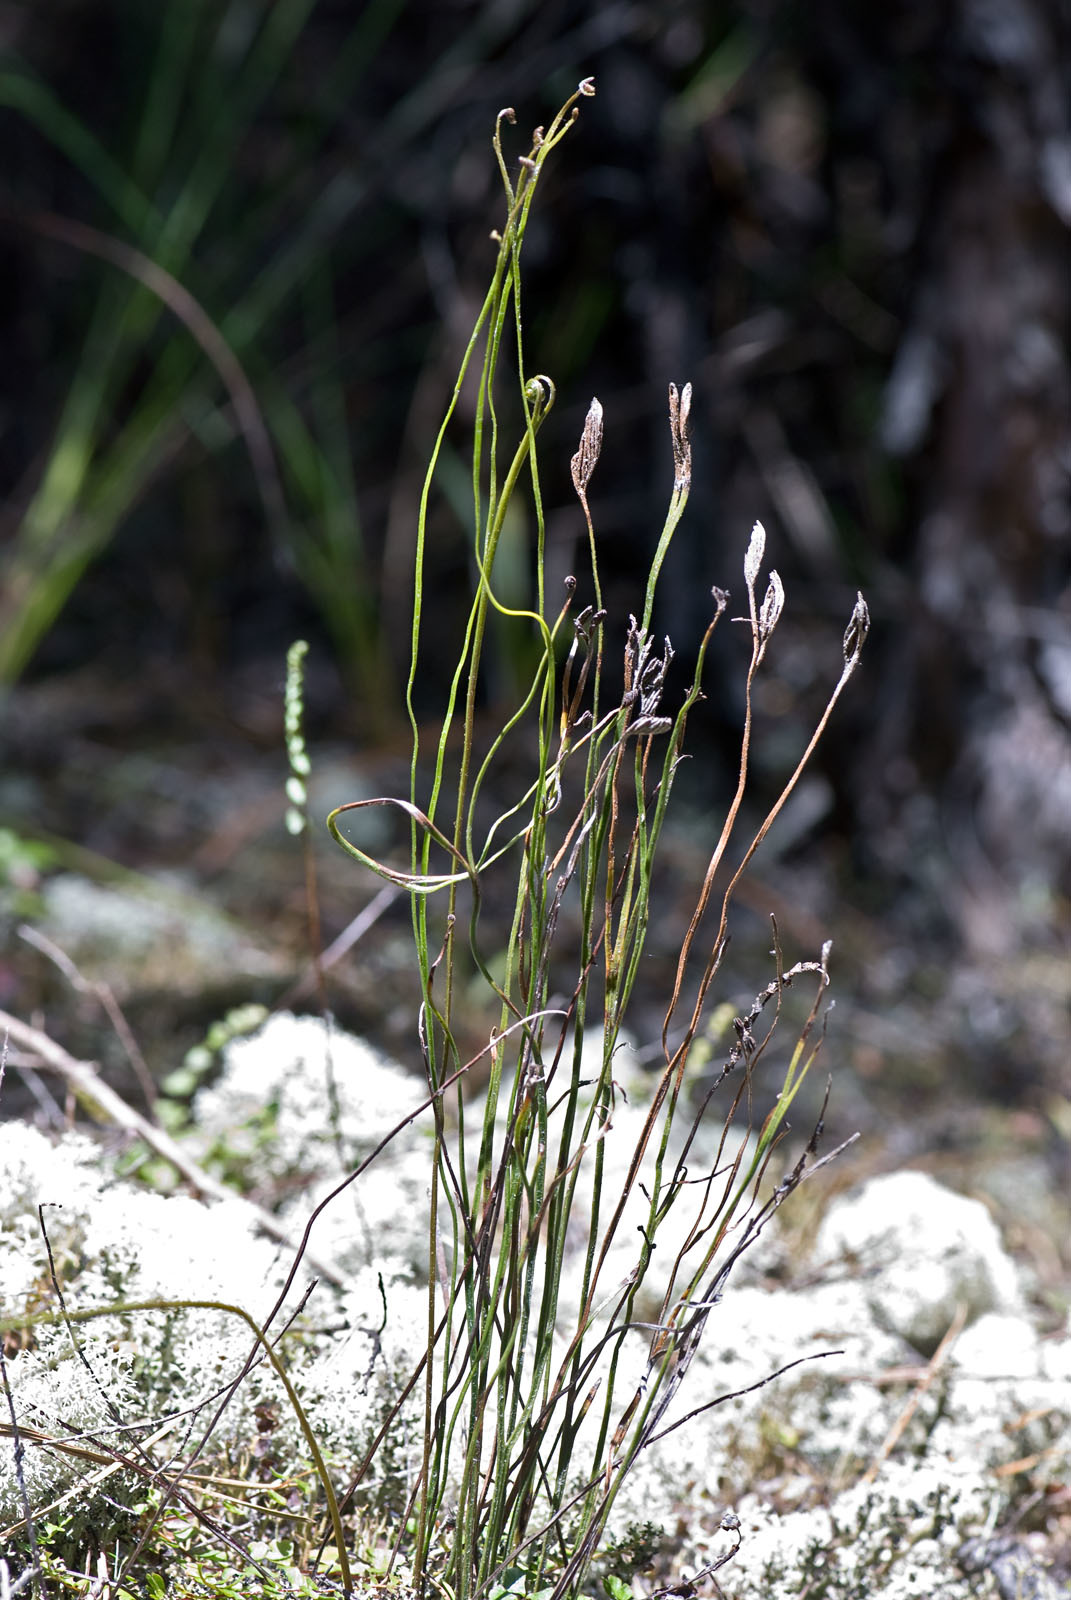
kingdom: Plantae
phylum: Tracheophyta
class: Polypodiopsida
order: Schizaeales
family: Schizaeaceae
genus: Schizaea
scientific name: Schizaea bifida
